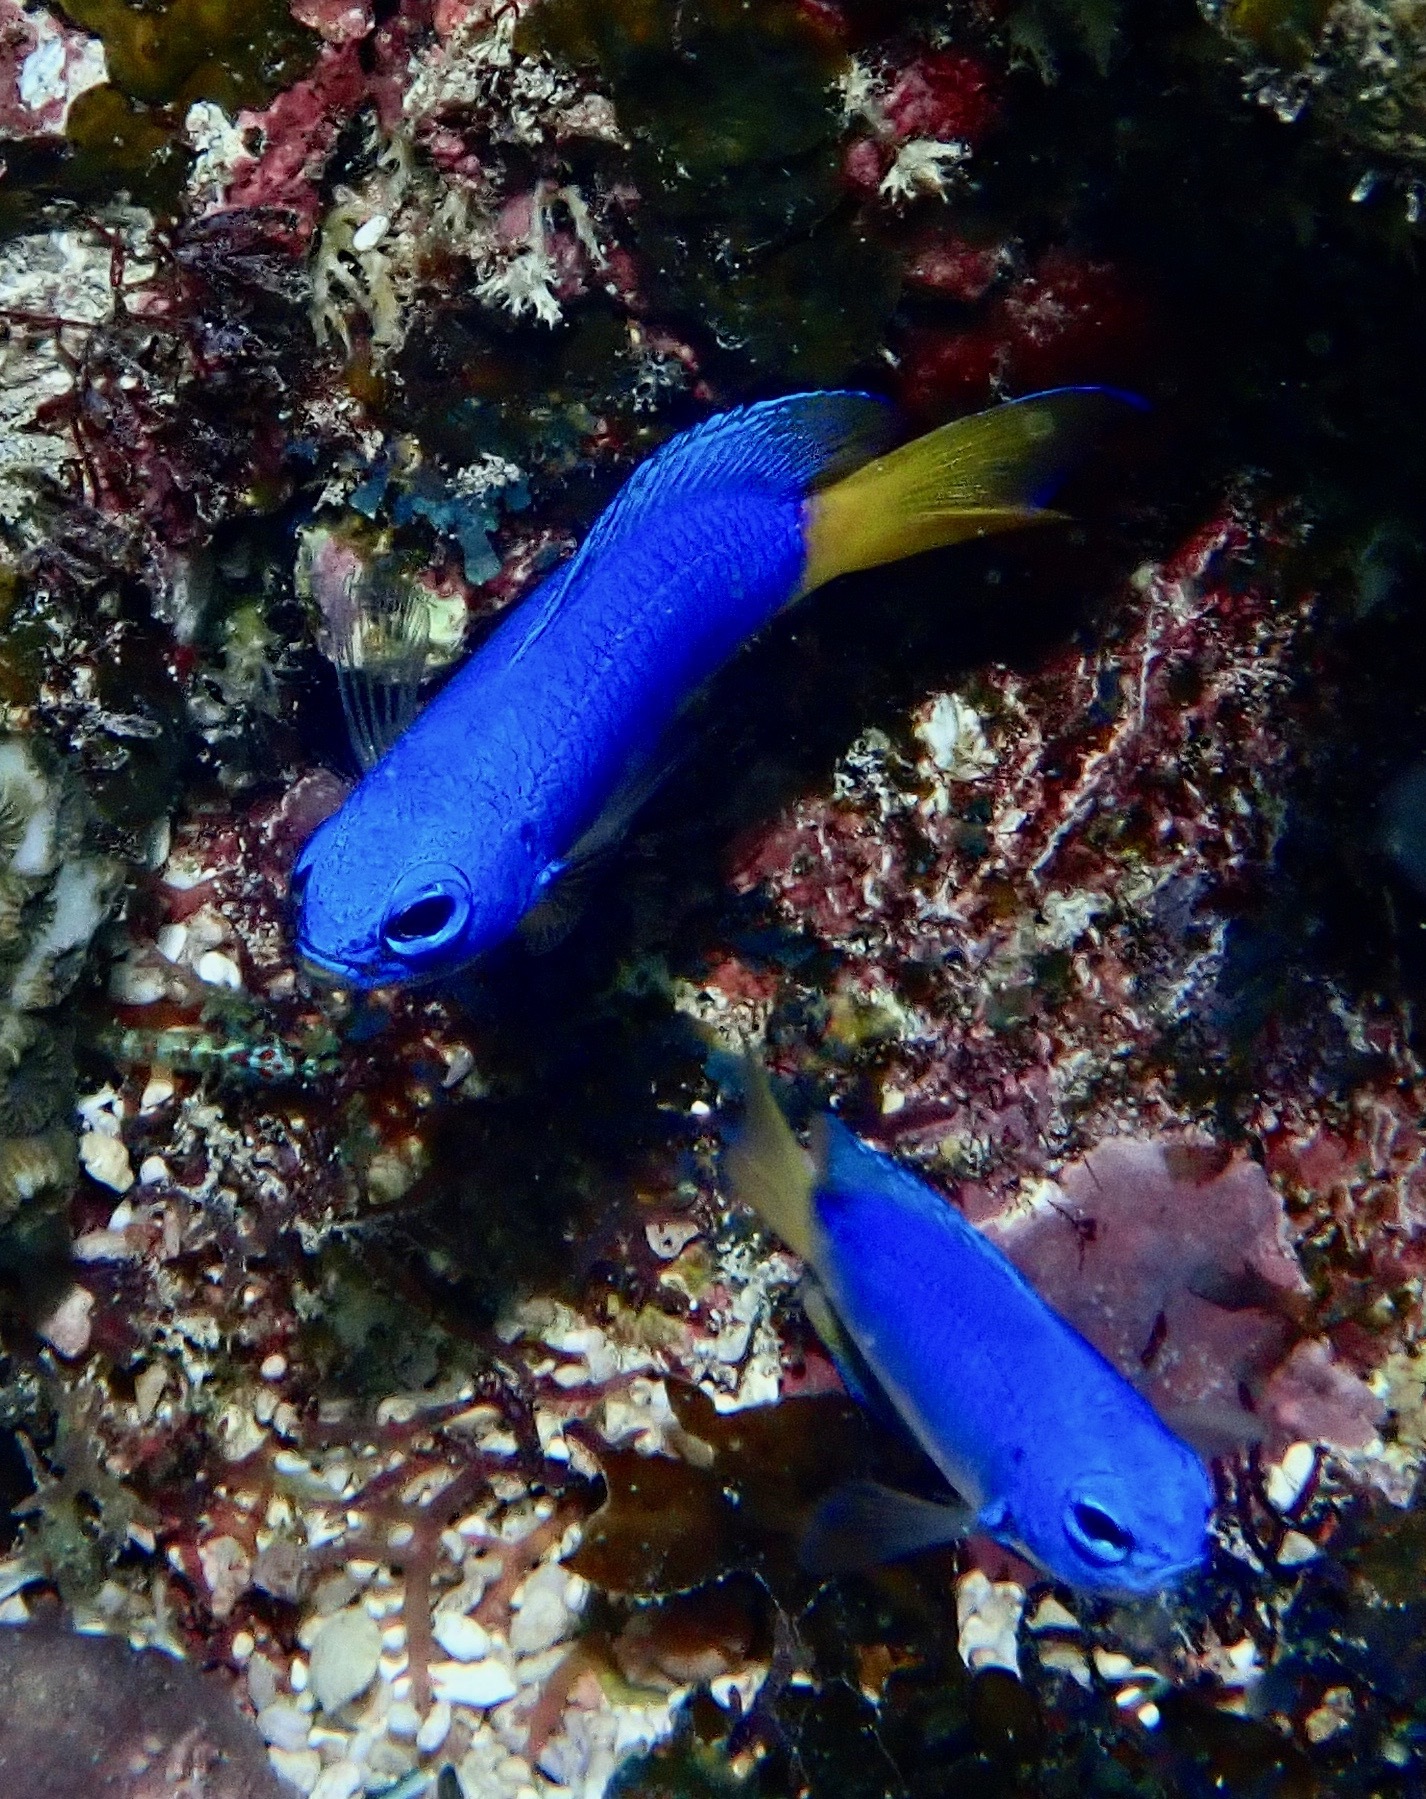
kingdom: Animalia
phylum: Chordata
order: Perciformes
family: Pomacentridae
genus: Pomacentrus
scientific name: Pomacentrus coelestis
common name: Neon damsel
